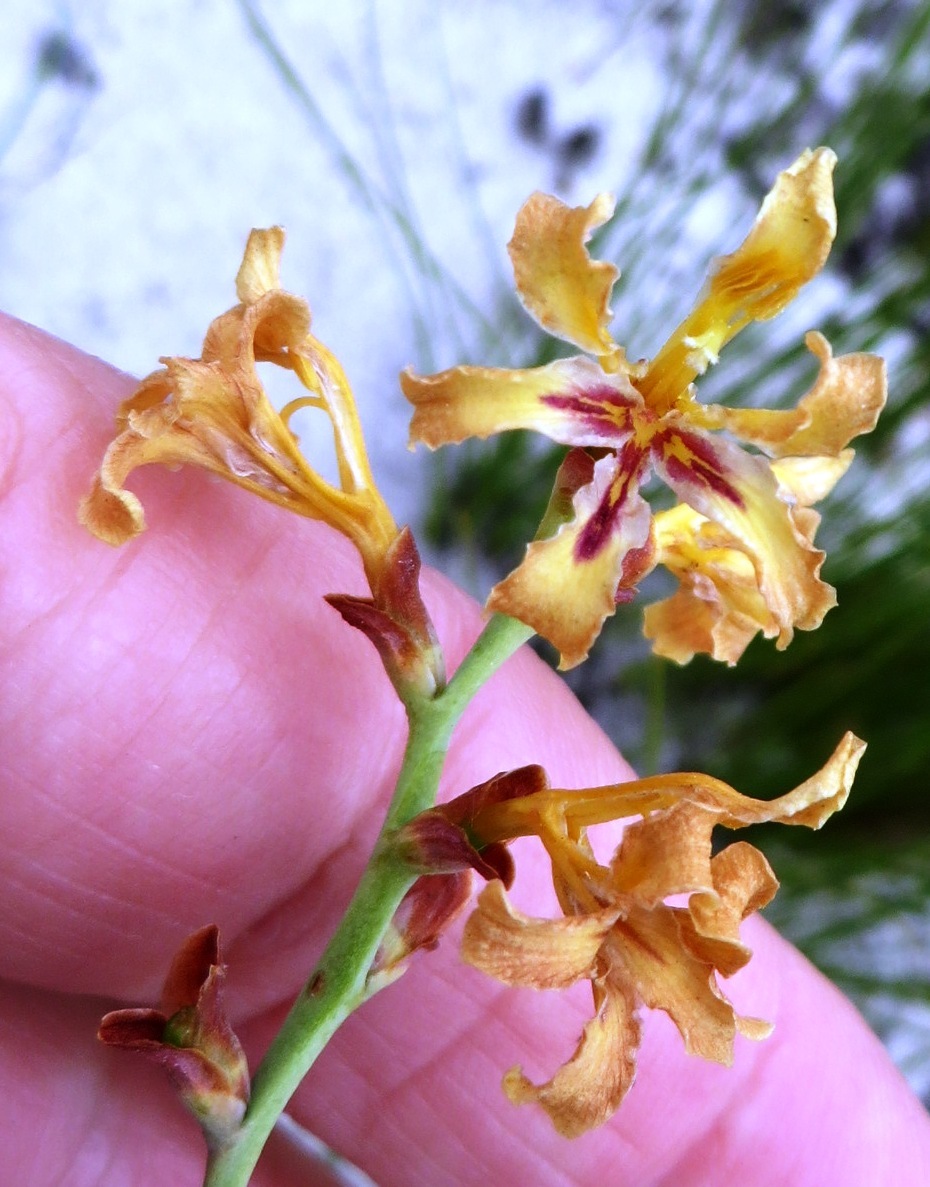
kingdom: Plantae
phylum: Tracheophyta
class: Liliopsida
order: Asparagales
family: Iridaceae
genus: Tritoniopsis
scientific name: Tritoniopsis unguicularis
